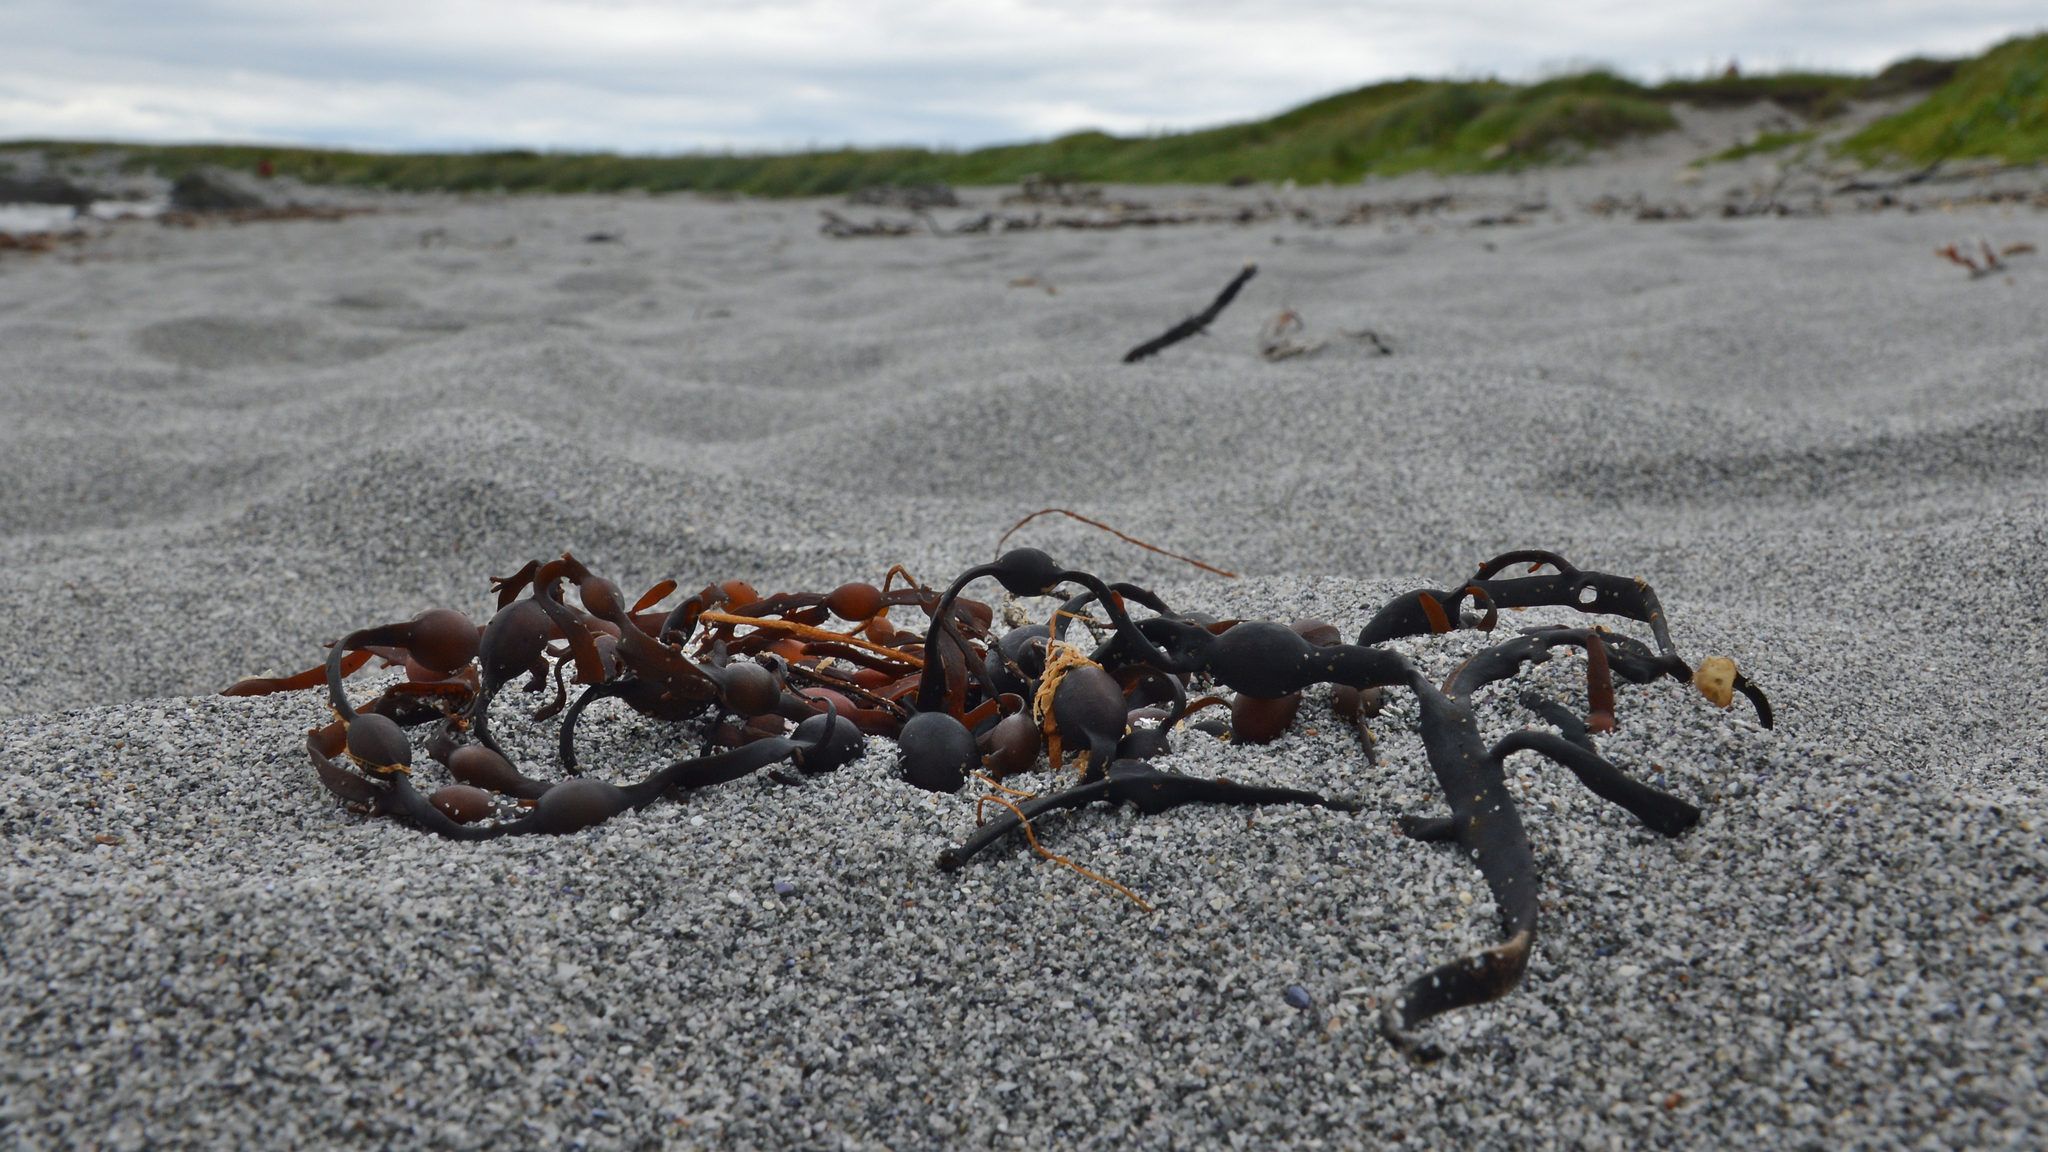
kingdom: Chromista
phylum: Ochrophyta
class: Phaeophyceae
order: Fucales
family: Fucaceae
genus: Ascophyllum
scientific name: Ascophyllum nodosum
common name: Knotted wrack
